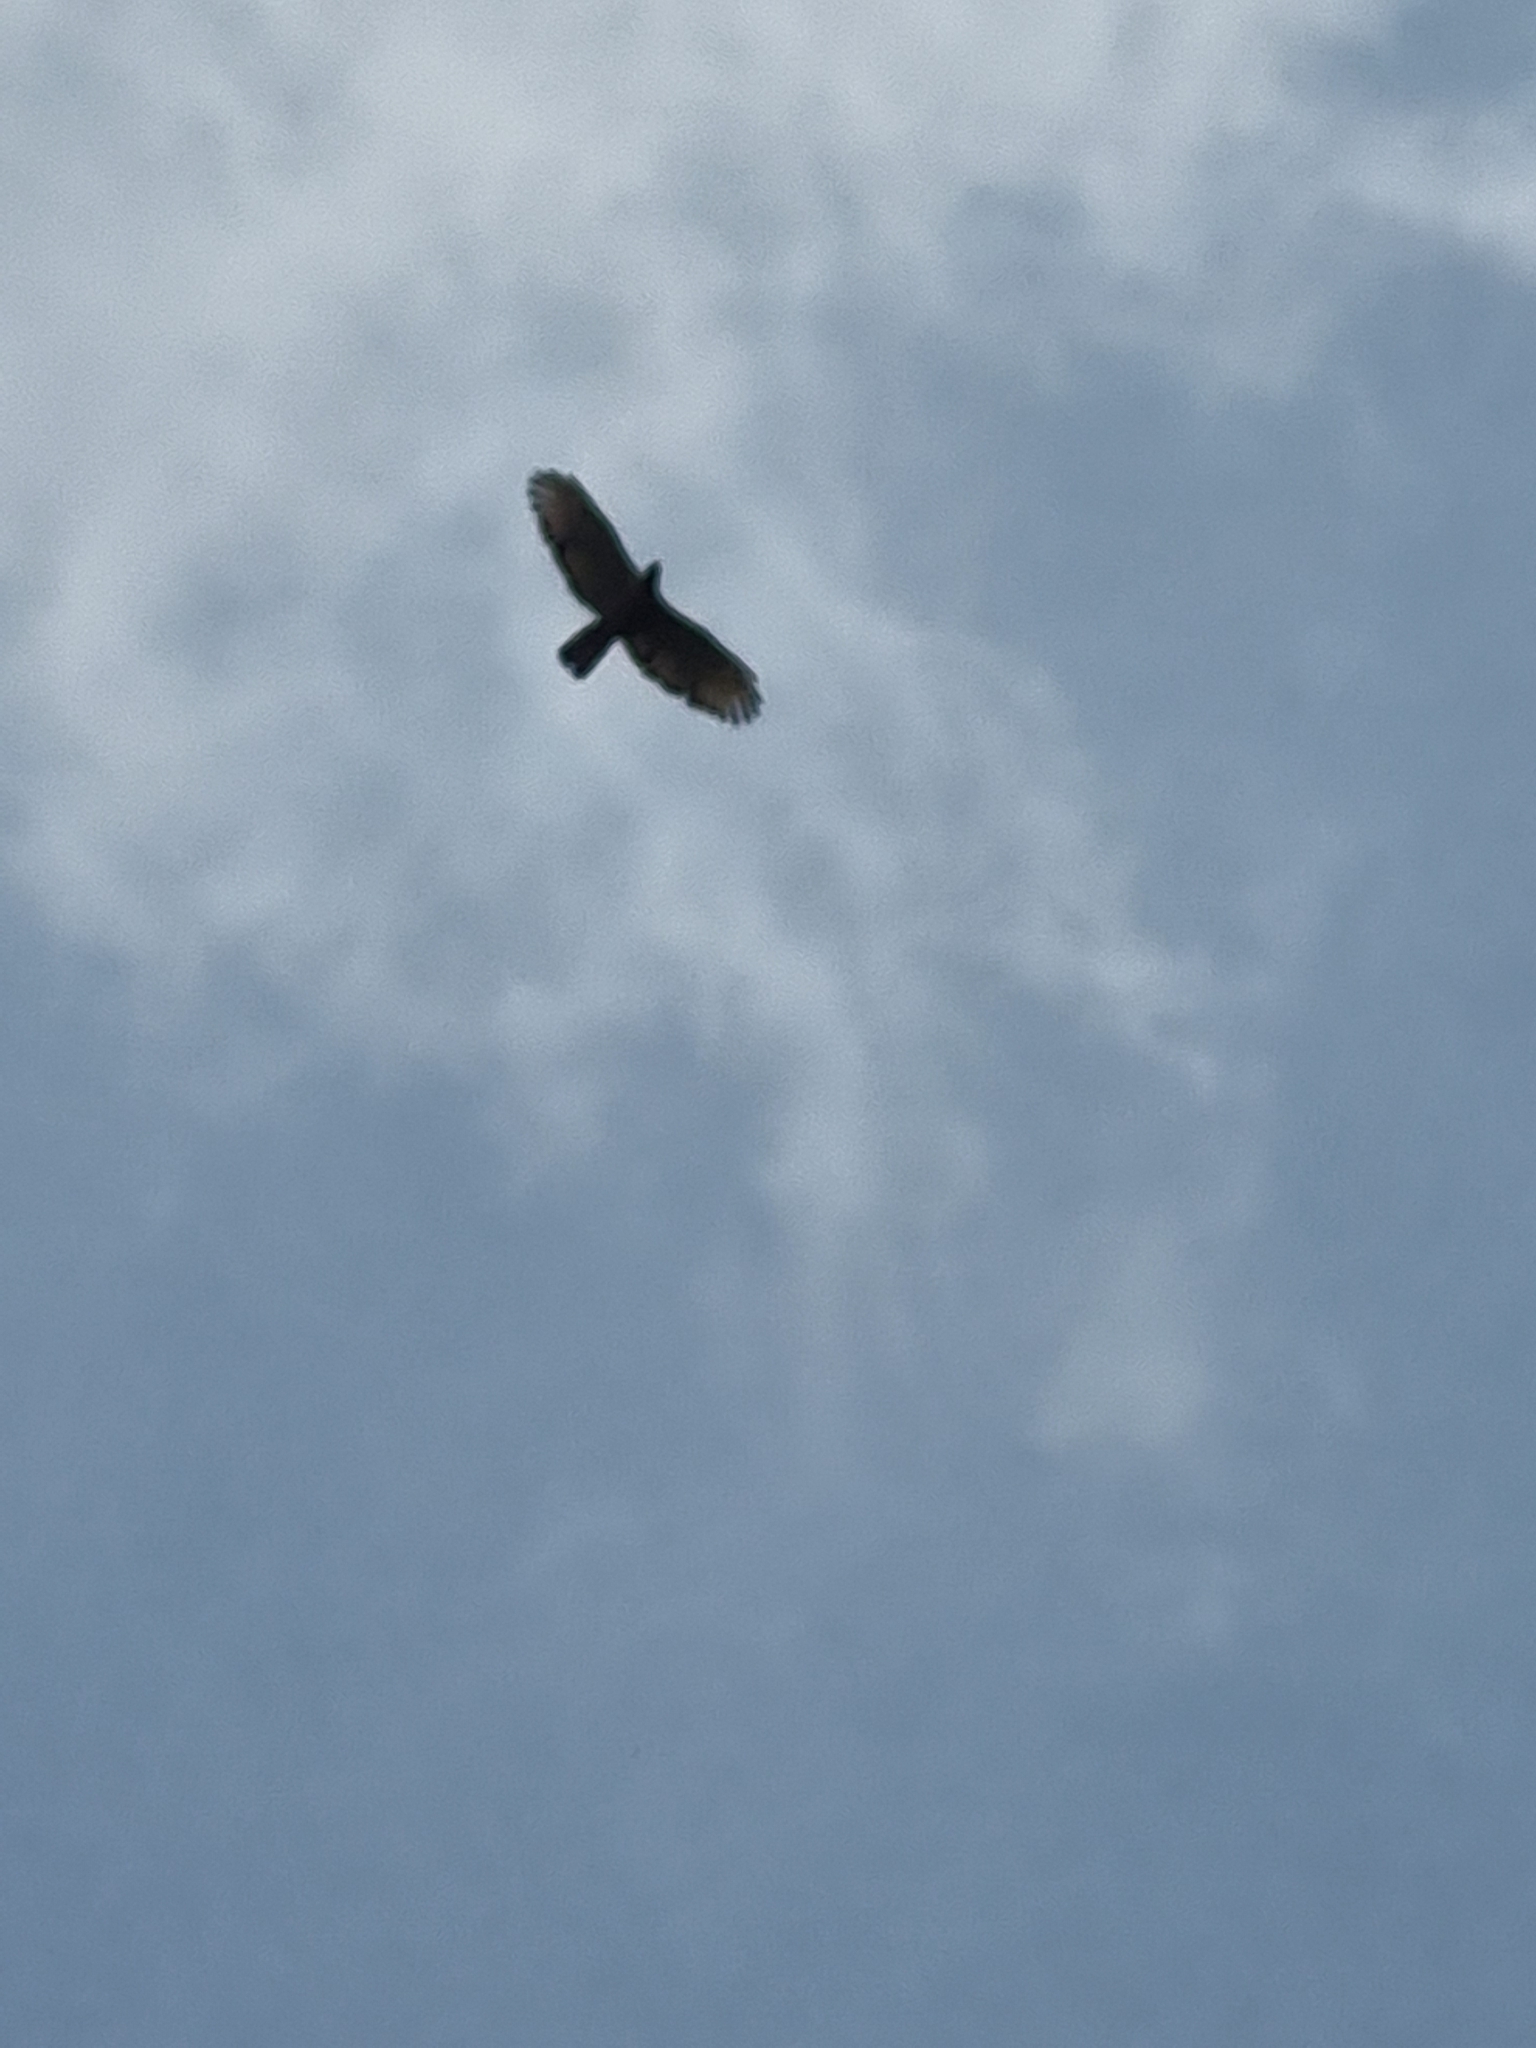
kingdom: Animalia
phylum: Chordata
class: Aves
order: Accipitriformes
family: Accipitridae
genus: Pernis
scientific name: Pernis ptilorhynchus
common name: Crested honey buzzard
